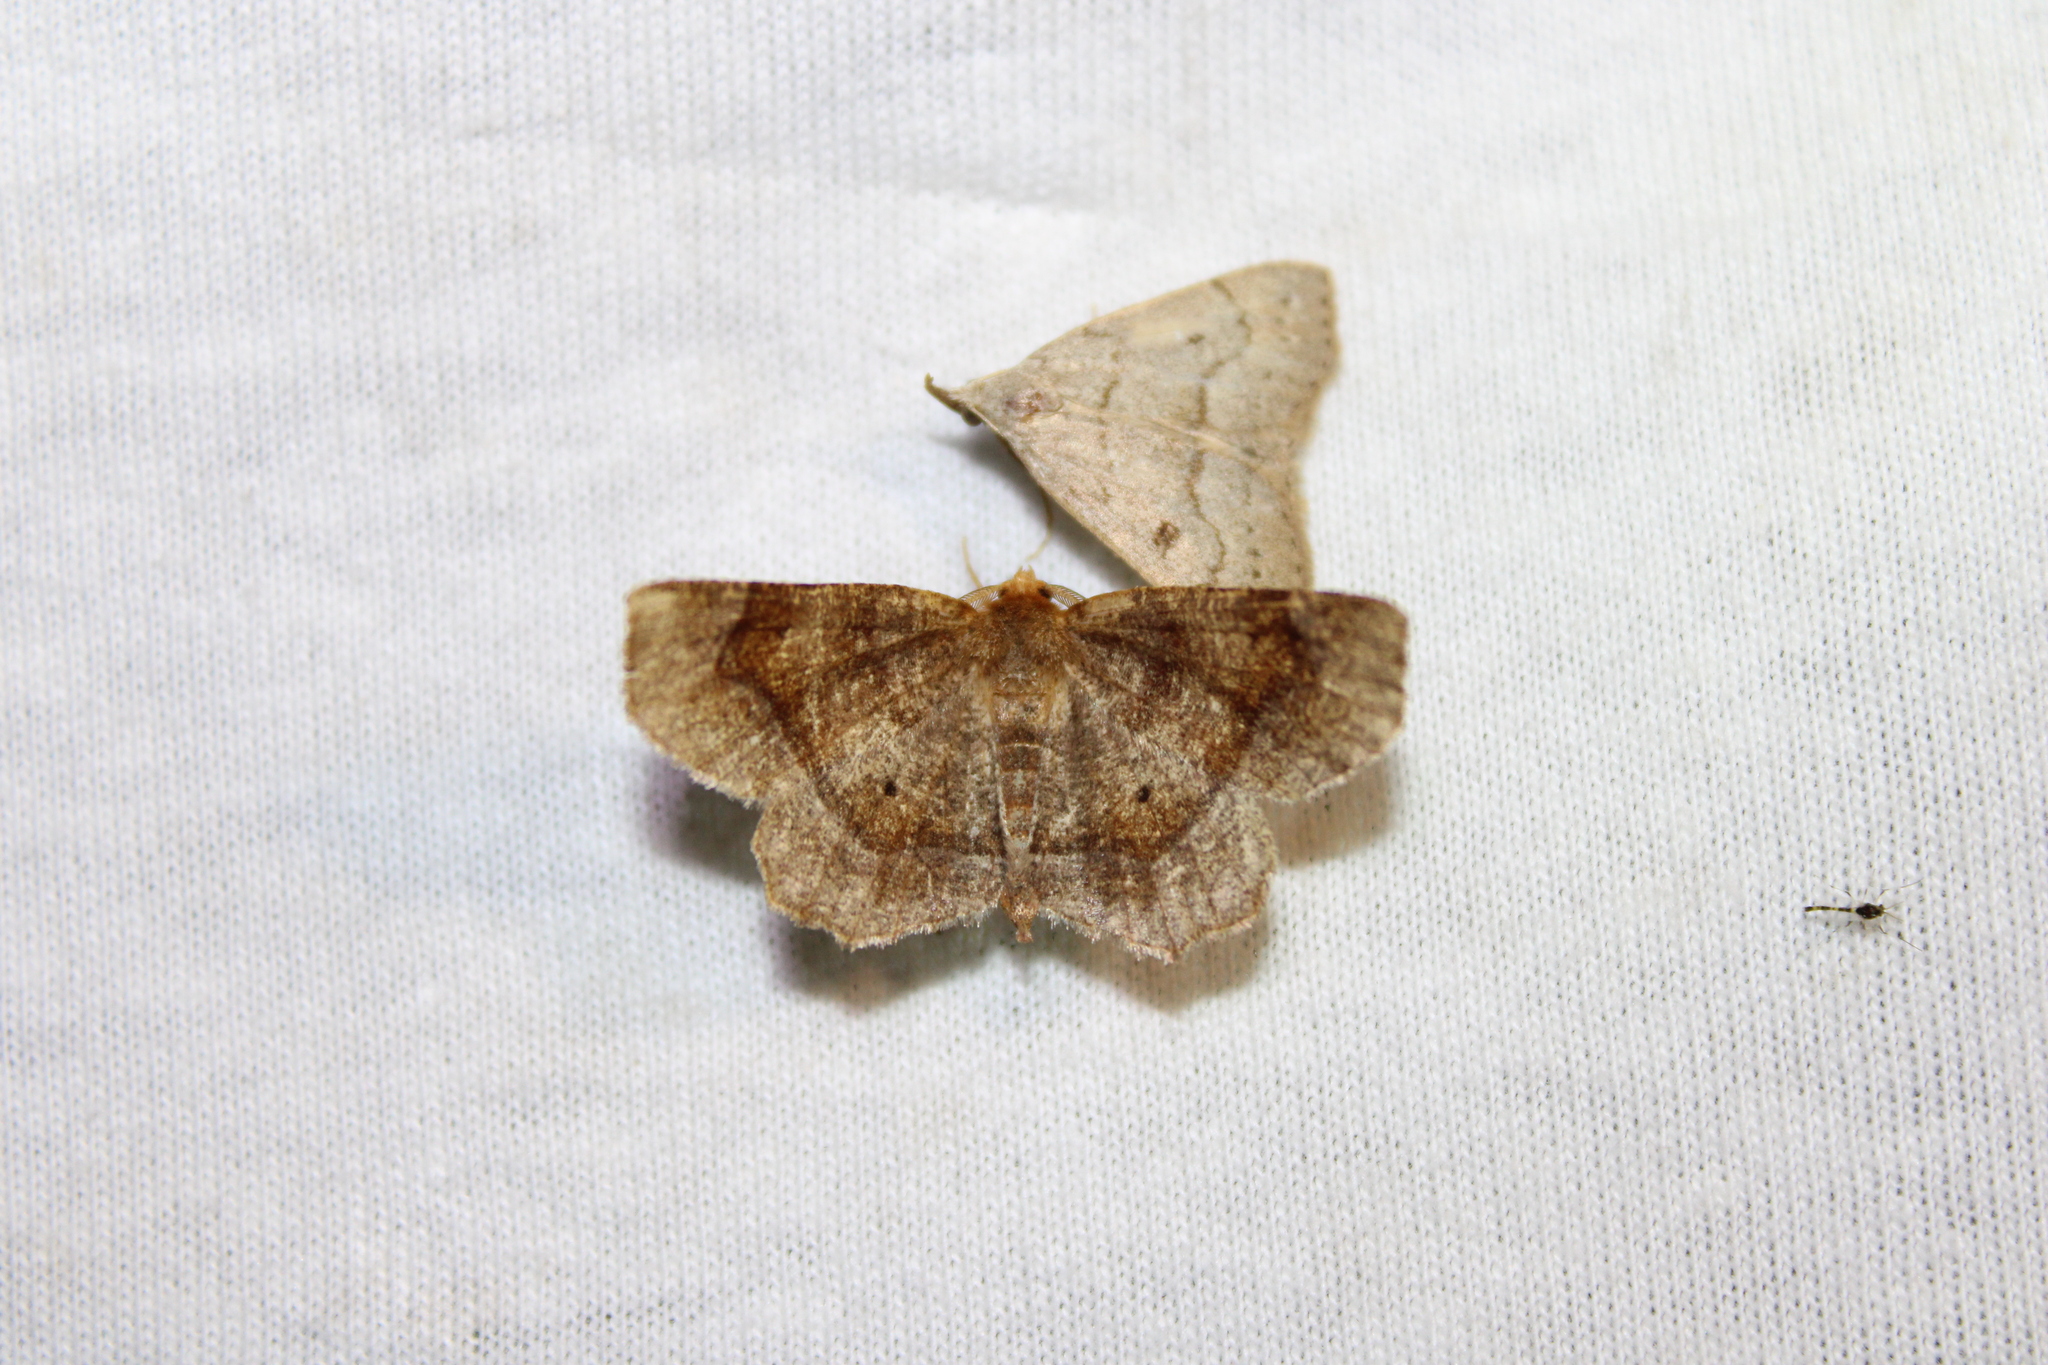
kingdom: Animalia
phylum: Arthropoda
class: Insecta
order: Lepidoptera
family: Geometridae
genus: Metarranthis
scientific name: Metarranthis hypochraria
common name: Common metarranthis
